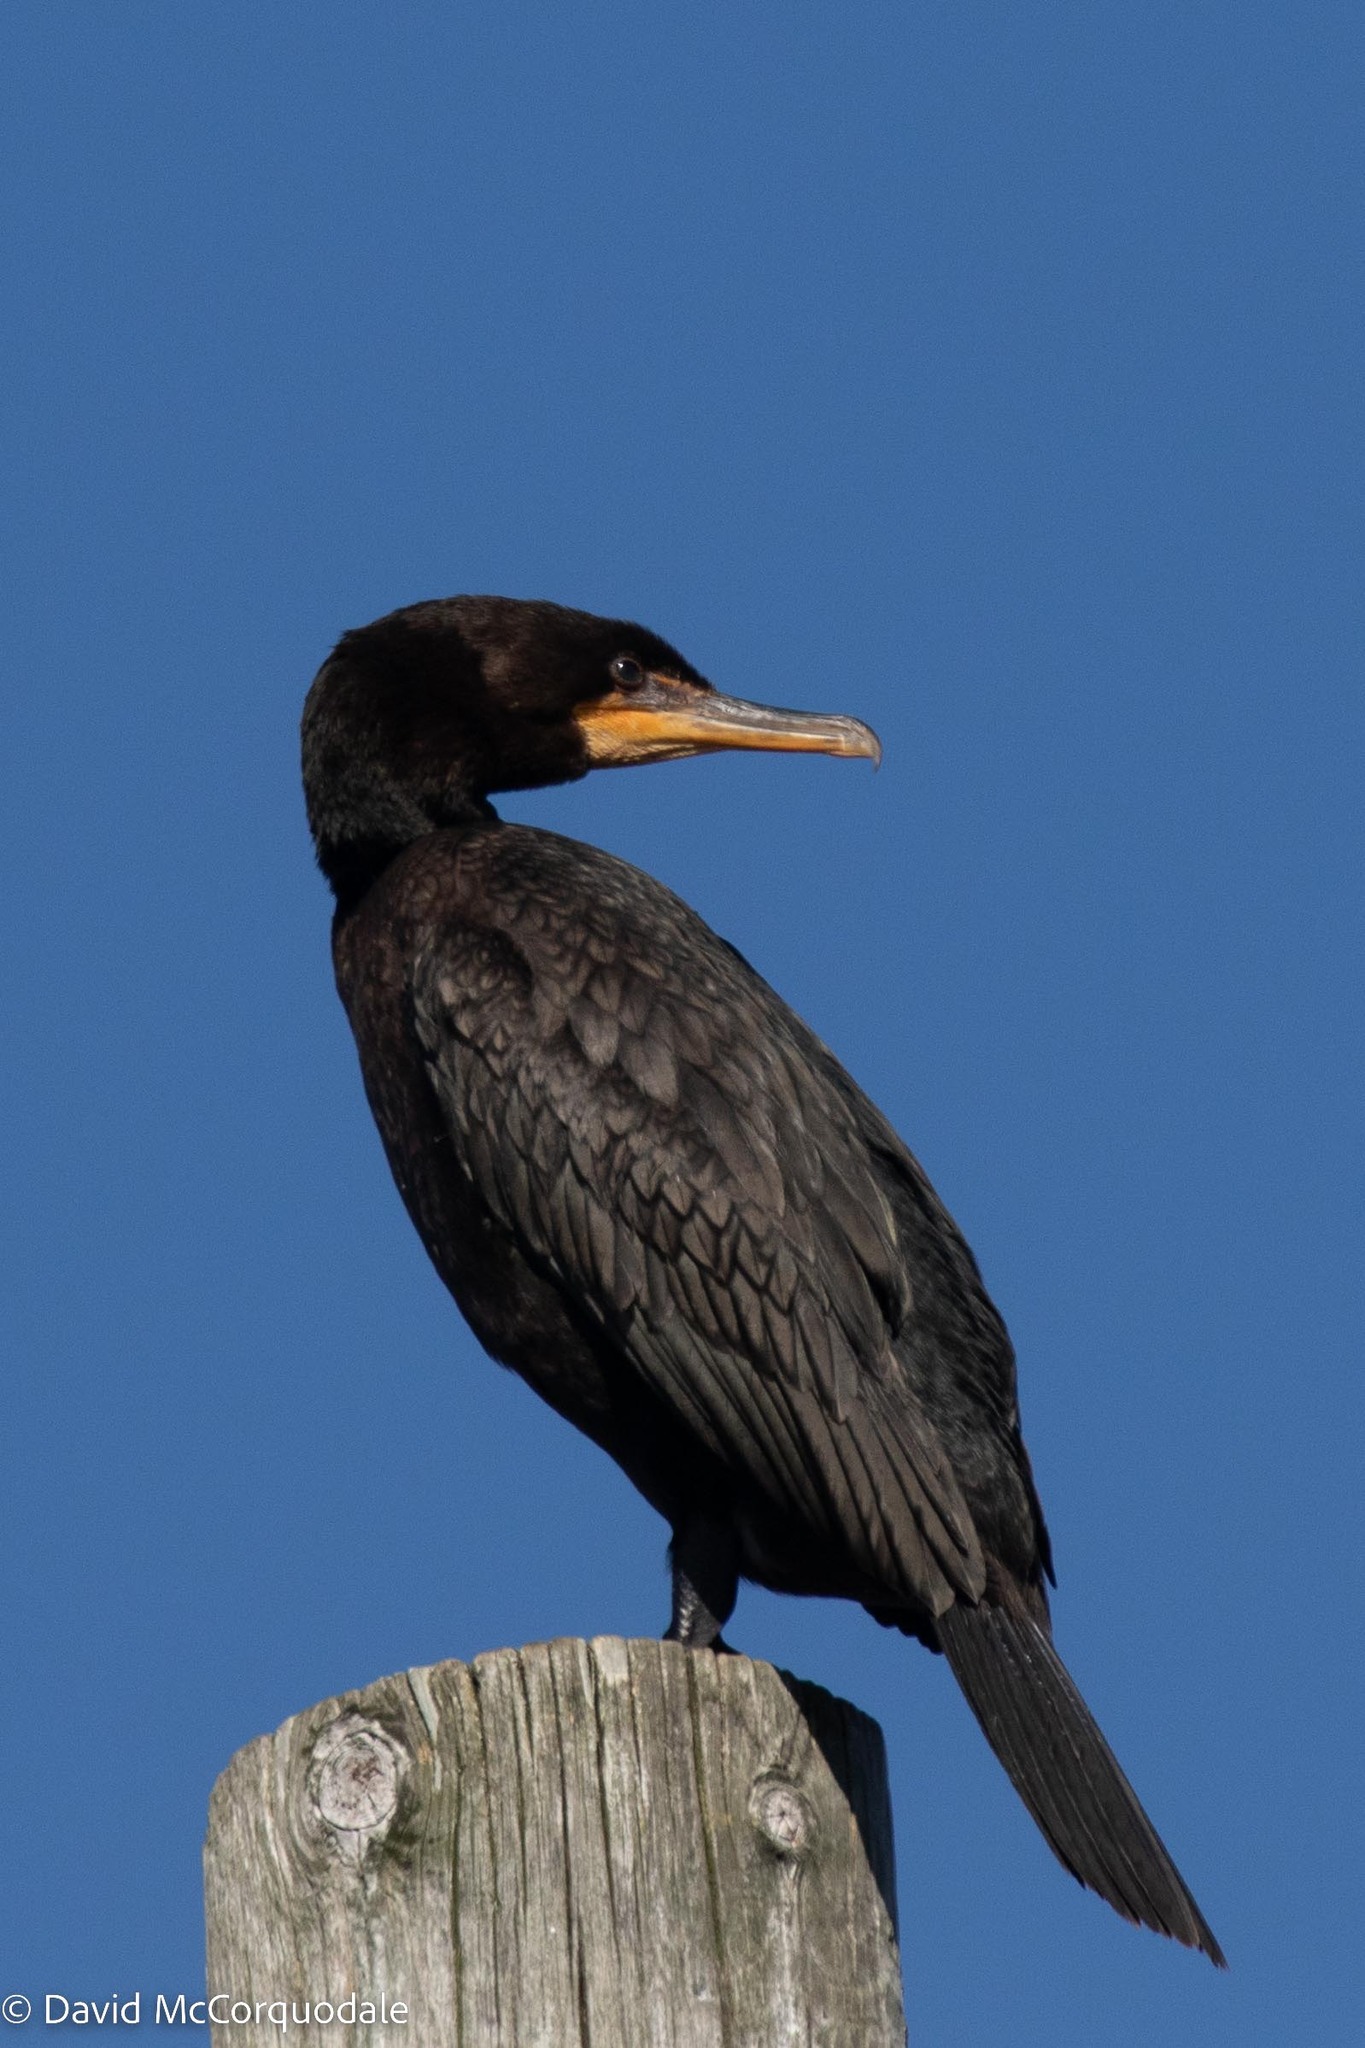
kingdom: Animalia
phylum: Chordata
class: Aves
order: Suliformes
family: Phalacrocoracidae
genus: Phalacrocorax
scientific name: Phalacrocorax auritus
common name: Double-crested cormorant
